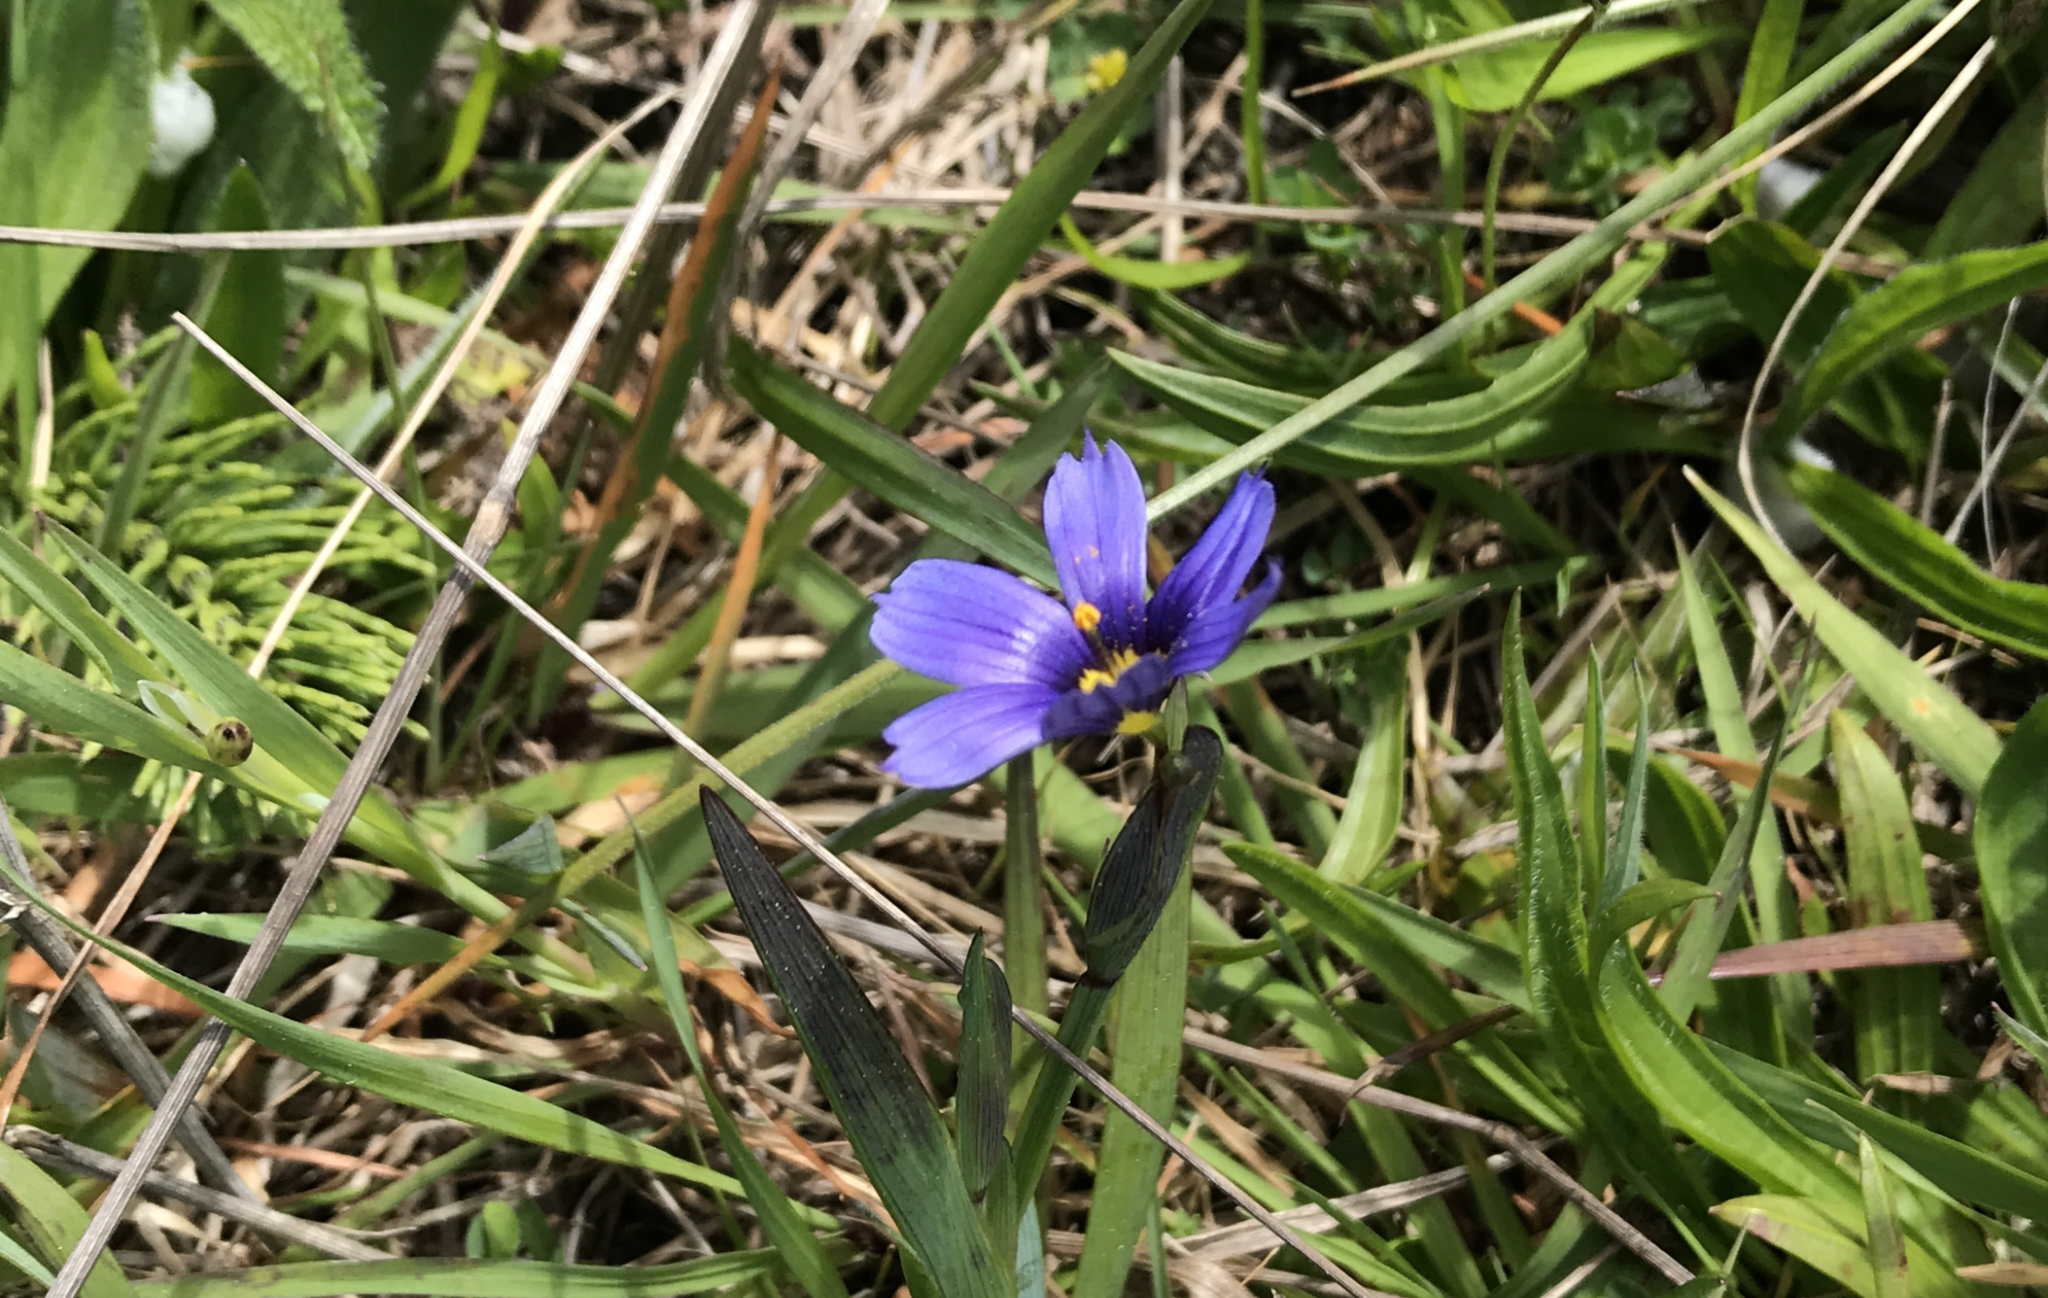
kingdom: Plantae
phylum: Tracheophyta
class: Liliopsida
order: Asparagales
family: Iridaceae
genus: Sisyrinchium
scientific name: Sisyrinchium bellum
